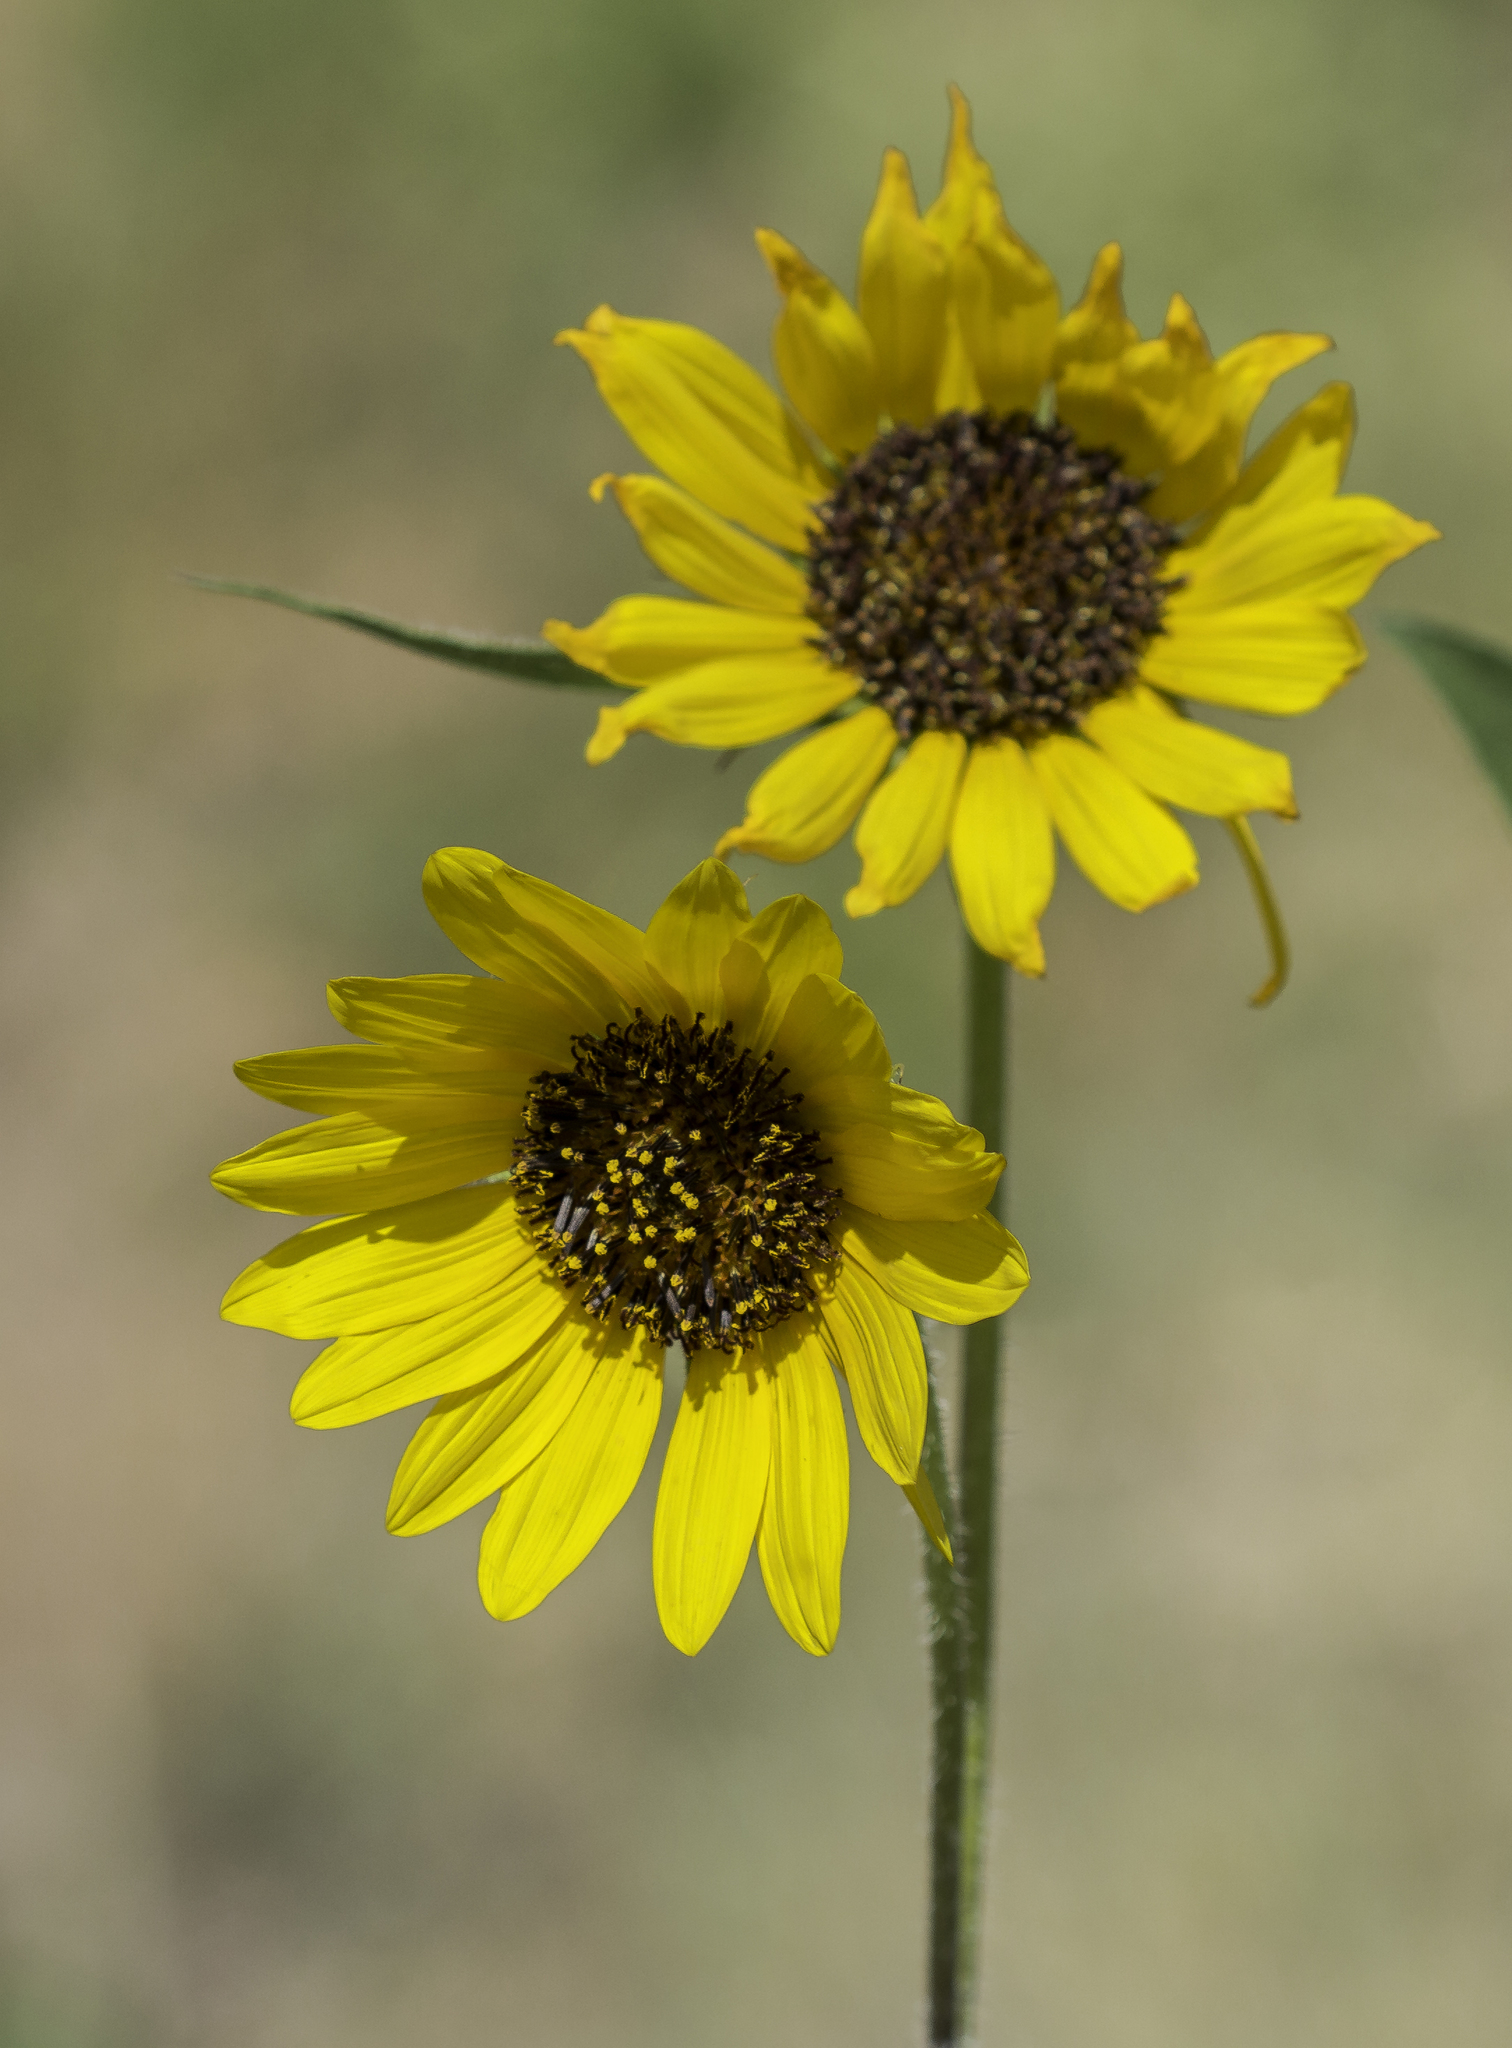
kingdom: Plantae
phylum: Tracheophyta
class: Magnoliopsida
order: Asterales
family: Asteraceae
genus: Helianthus
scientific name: Helianthus annuus
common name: Sunflower
